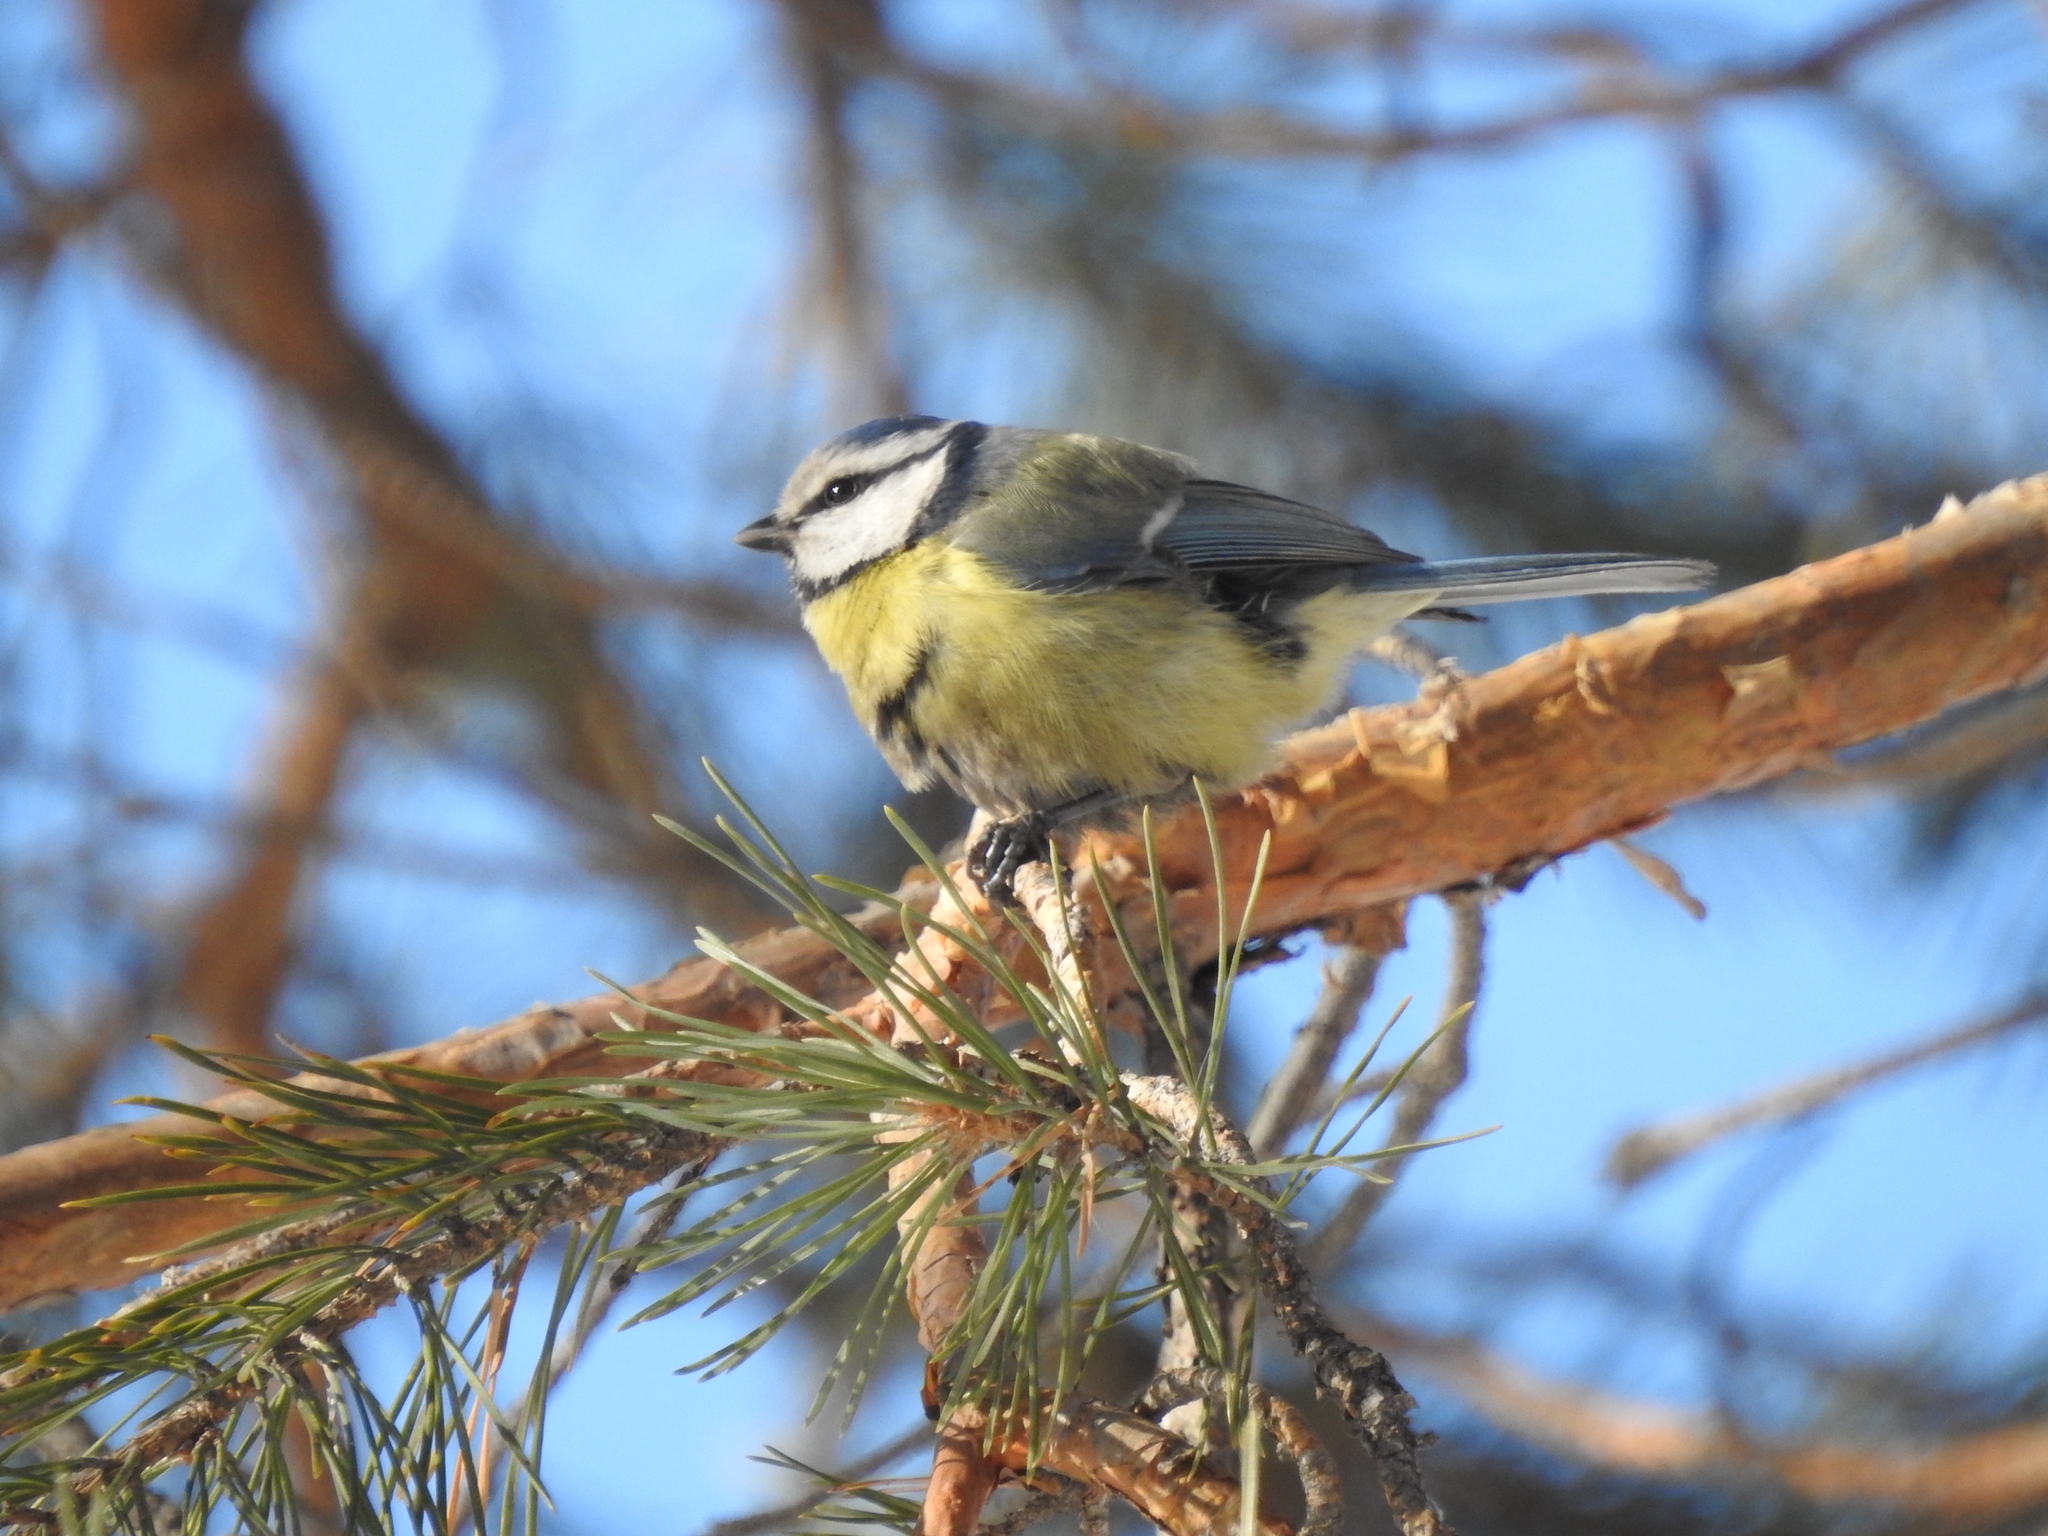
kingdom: Animalia
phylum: Chordata
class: Aves
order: Passeriformes
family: Paridae
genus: Cyanistes
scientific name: Cyanistes caeruleus
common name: Eurasian blue tit
